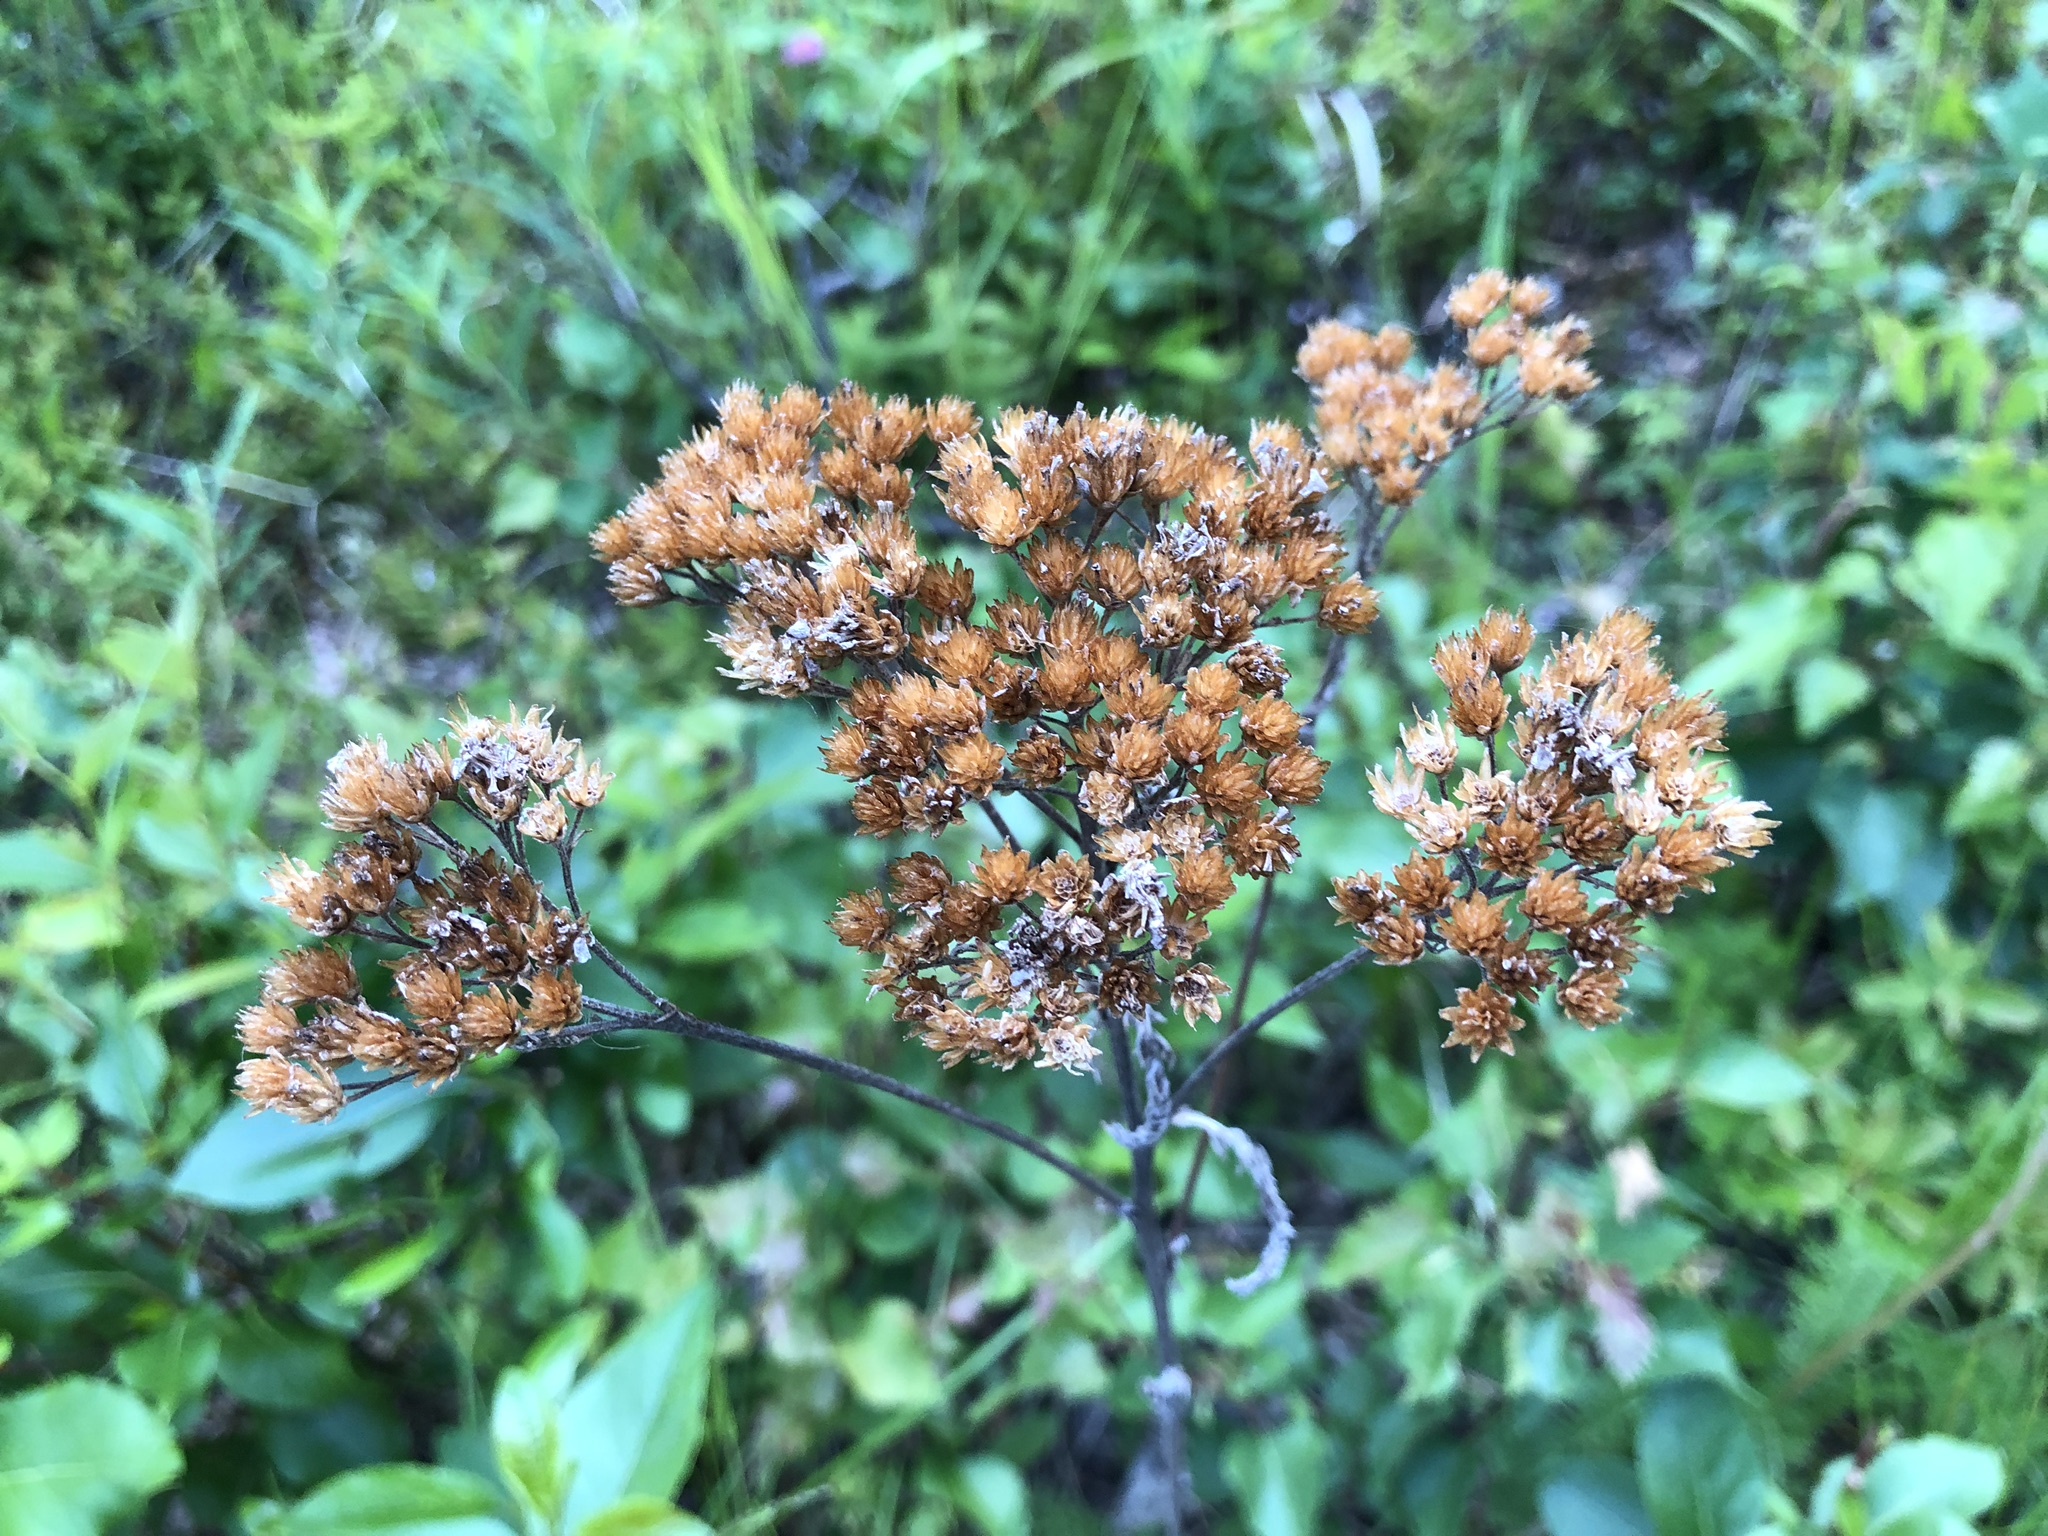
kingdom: Plantae
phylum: Tracheophyta
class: Magnoliopsida
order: Asterales
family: Asteraceae
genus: Achillea
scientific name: Achillea millefolium
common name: Yarrow
